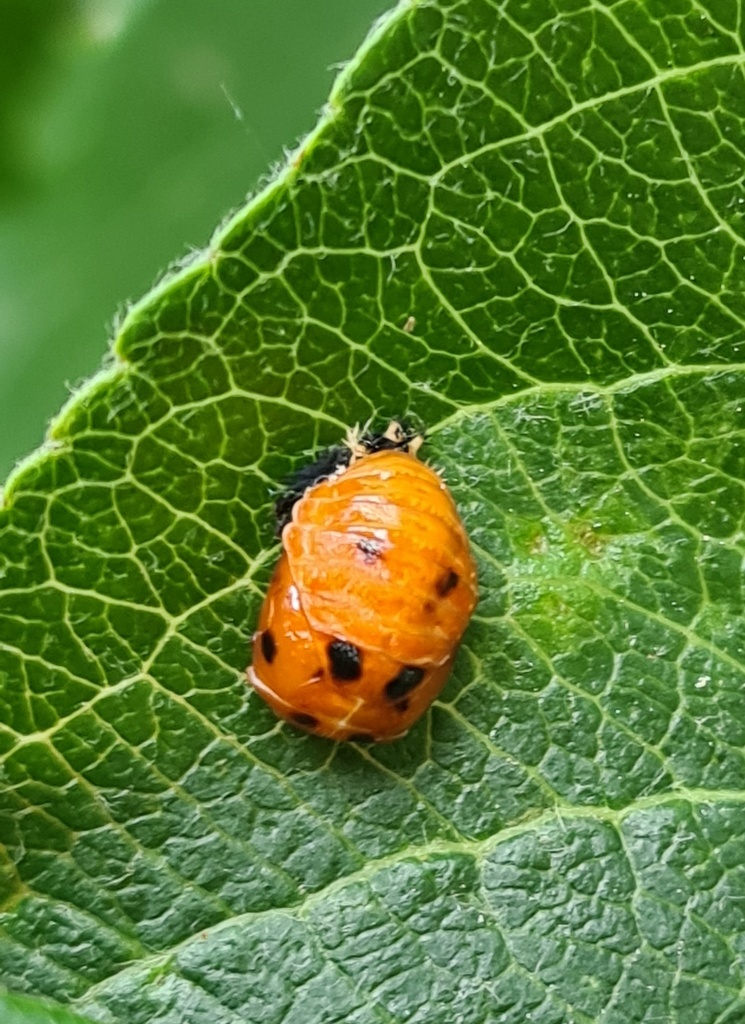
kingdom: Animalia
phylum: Arthropoda
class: Insecta
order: Coleoptera
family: Coccinellidae
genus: Harmonia
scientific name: Harmonia axyridis
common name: Harlequin ladybird
